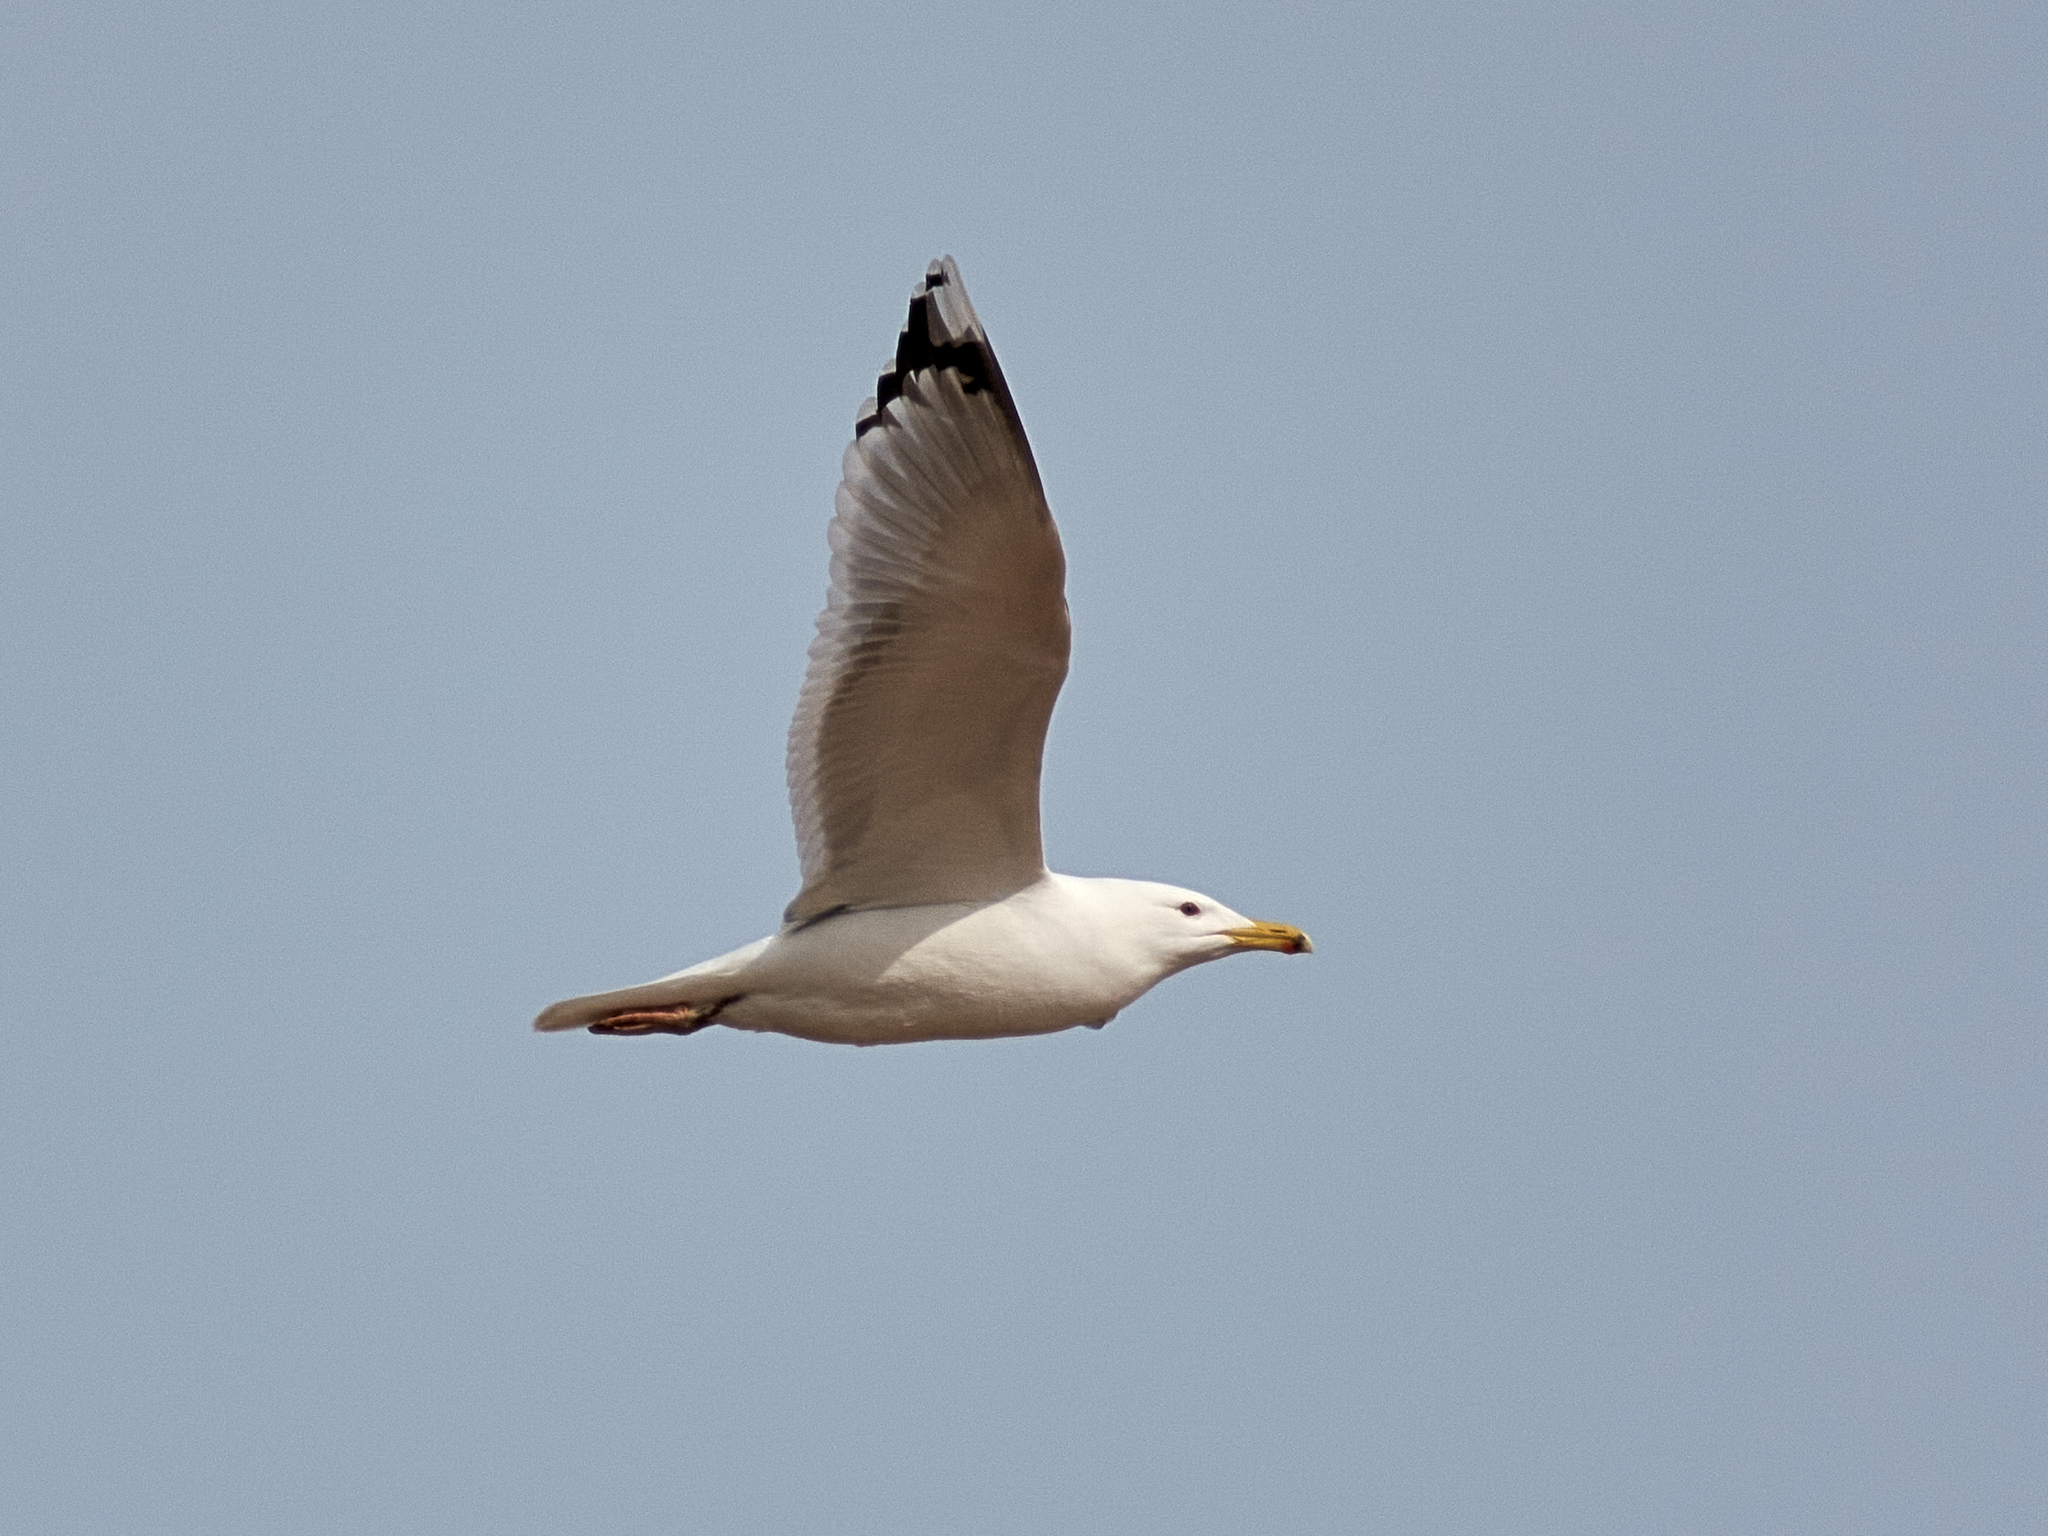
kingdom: Animalia
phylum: Chordata
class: Aves
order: Charadriiformes
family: Laridae
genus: Larus
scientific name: Larus cachinnans
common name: Caspian gull
